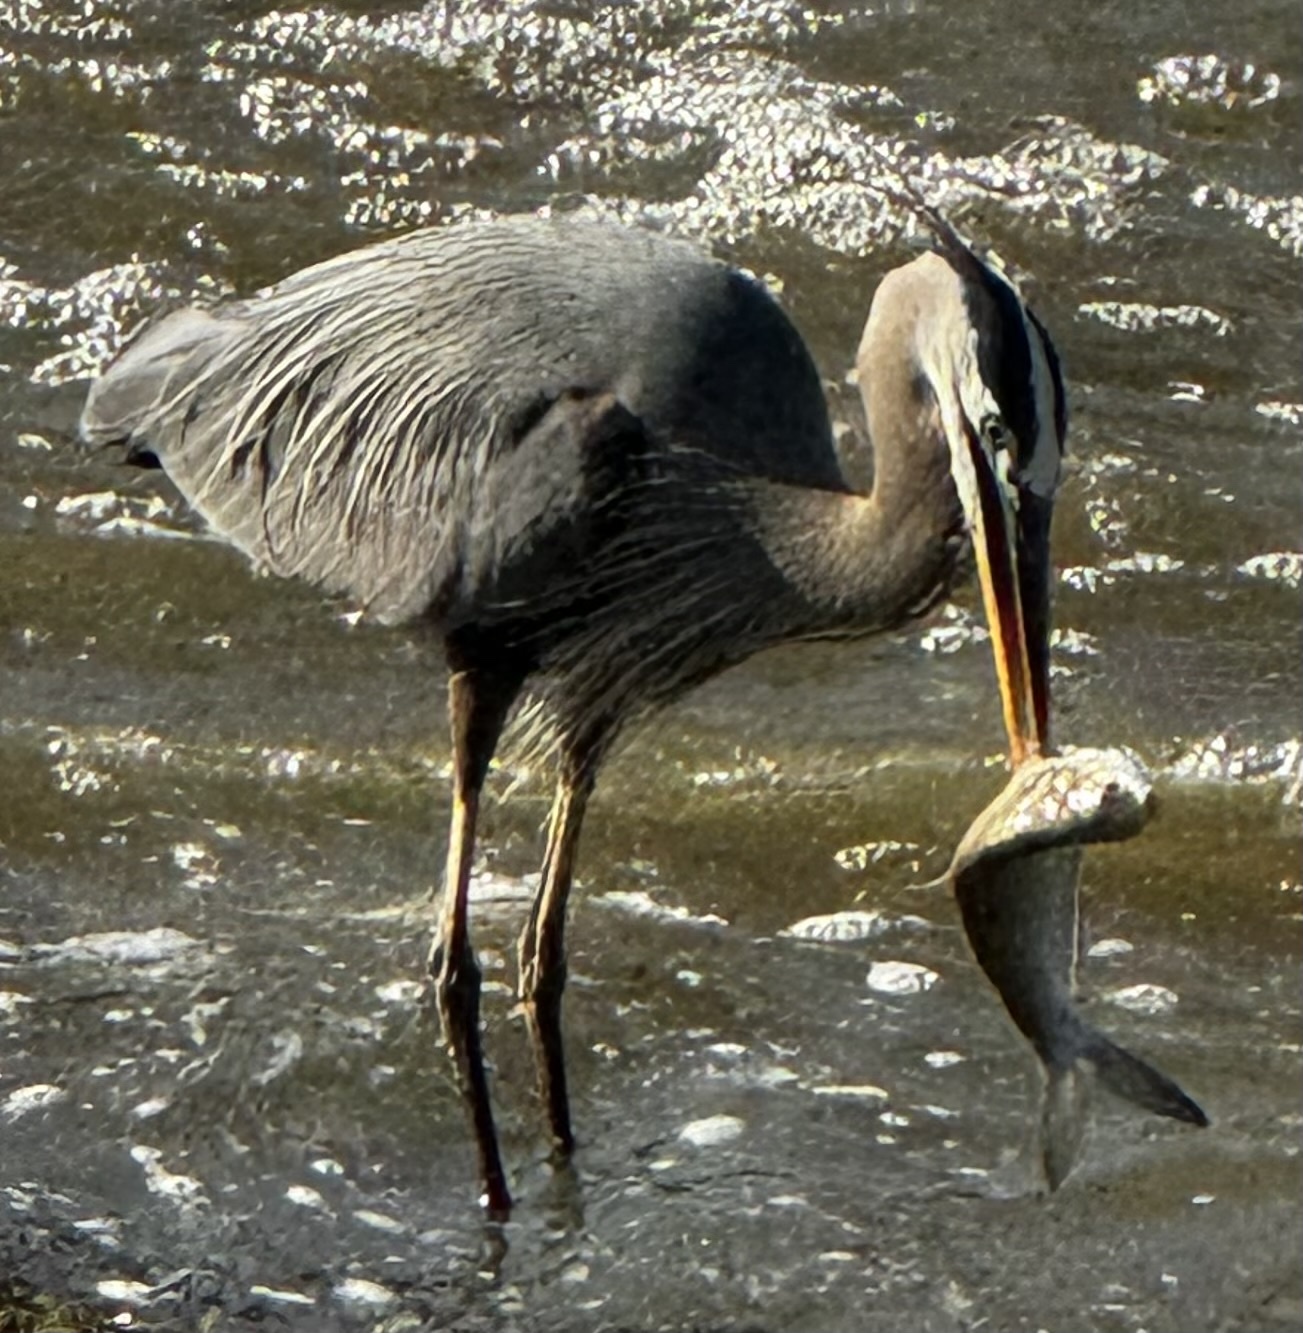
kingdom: Animalia
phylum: Chordata
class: Aves
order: Pelecaniformes
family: Ardeidae
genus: Ardea
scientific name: Ardea herodias
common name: Great blue heron
